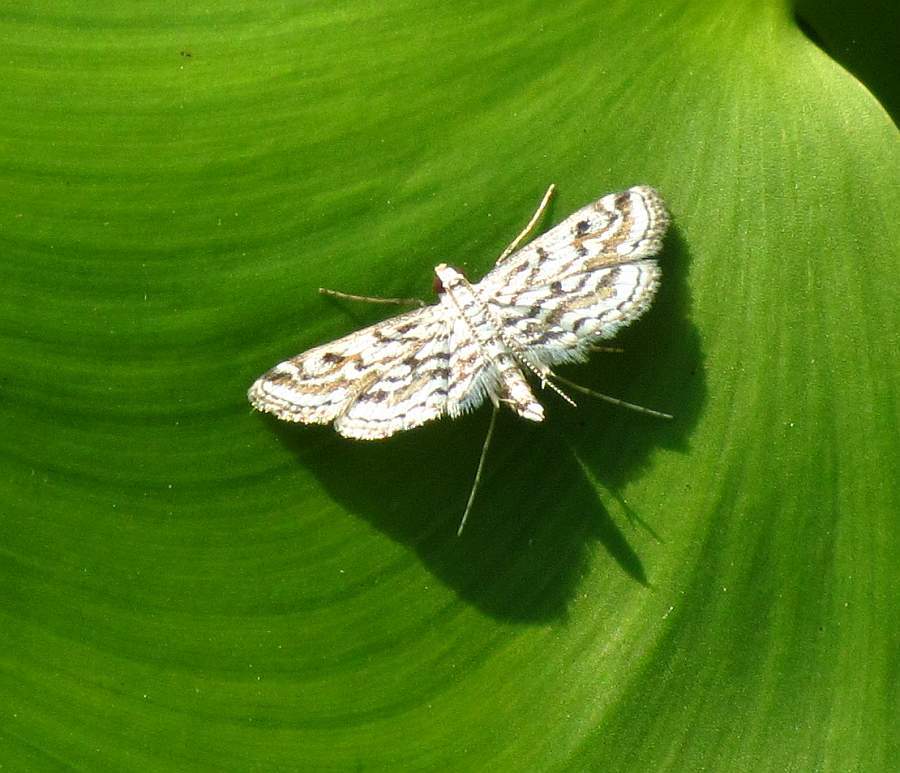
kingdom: Animalia
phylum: Arthropoda
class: Insecta
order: Lepidoptera
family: Crambidae
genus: Parapoynx
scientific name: Parapoynx allionealis
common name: Bladderwort casemaker
